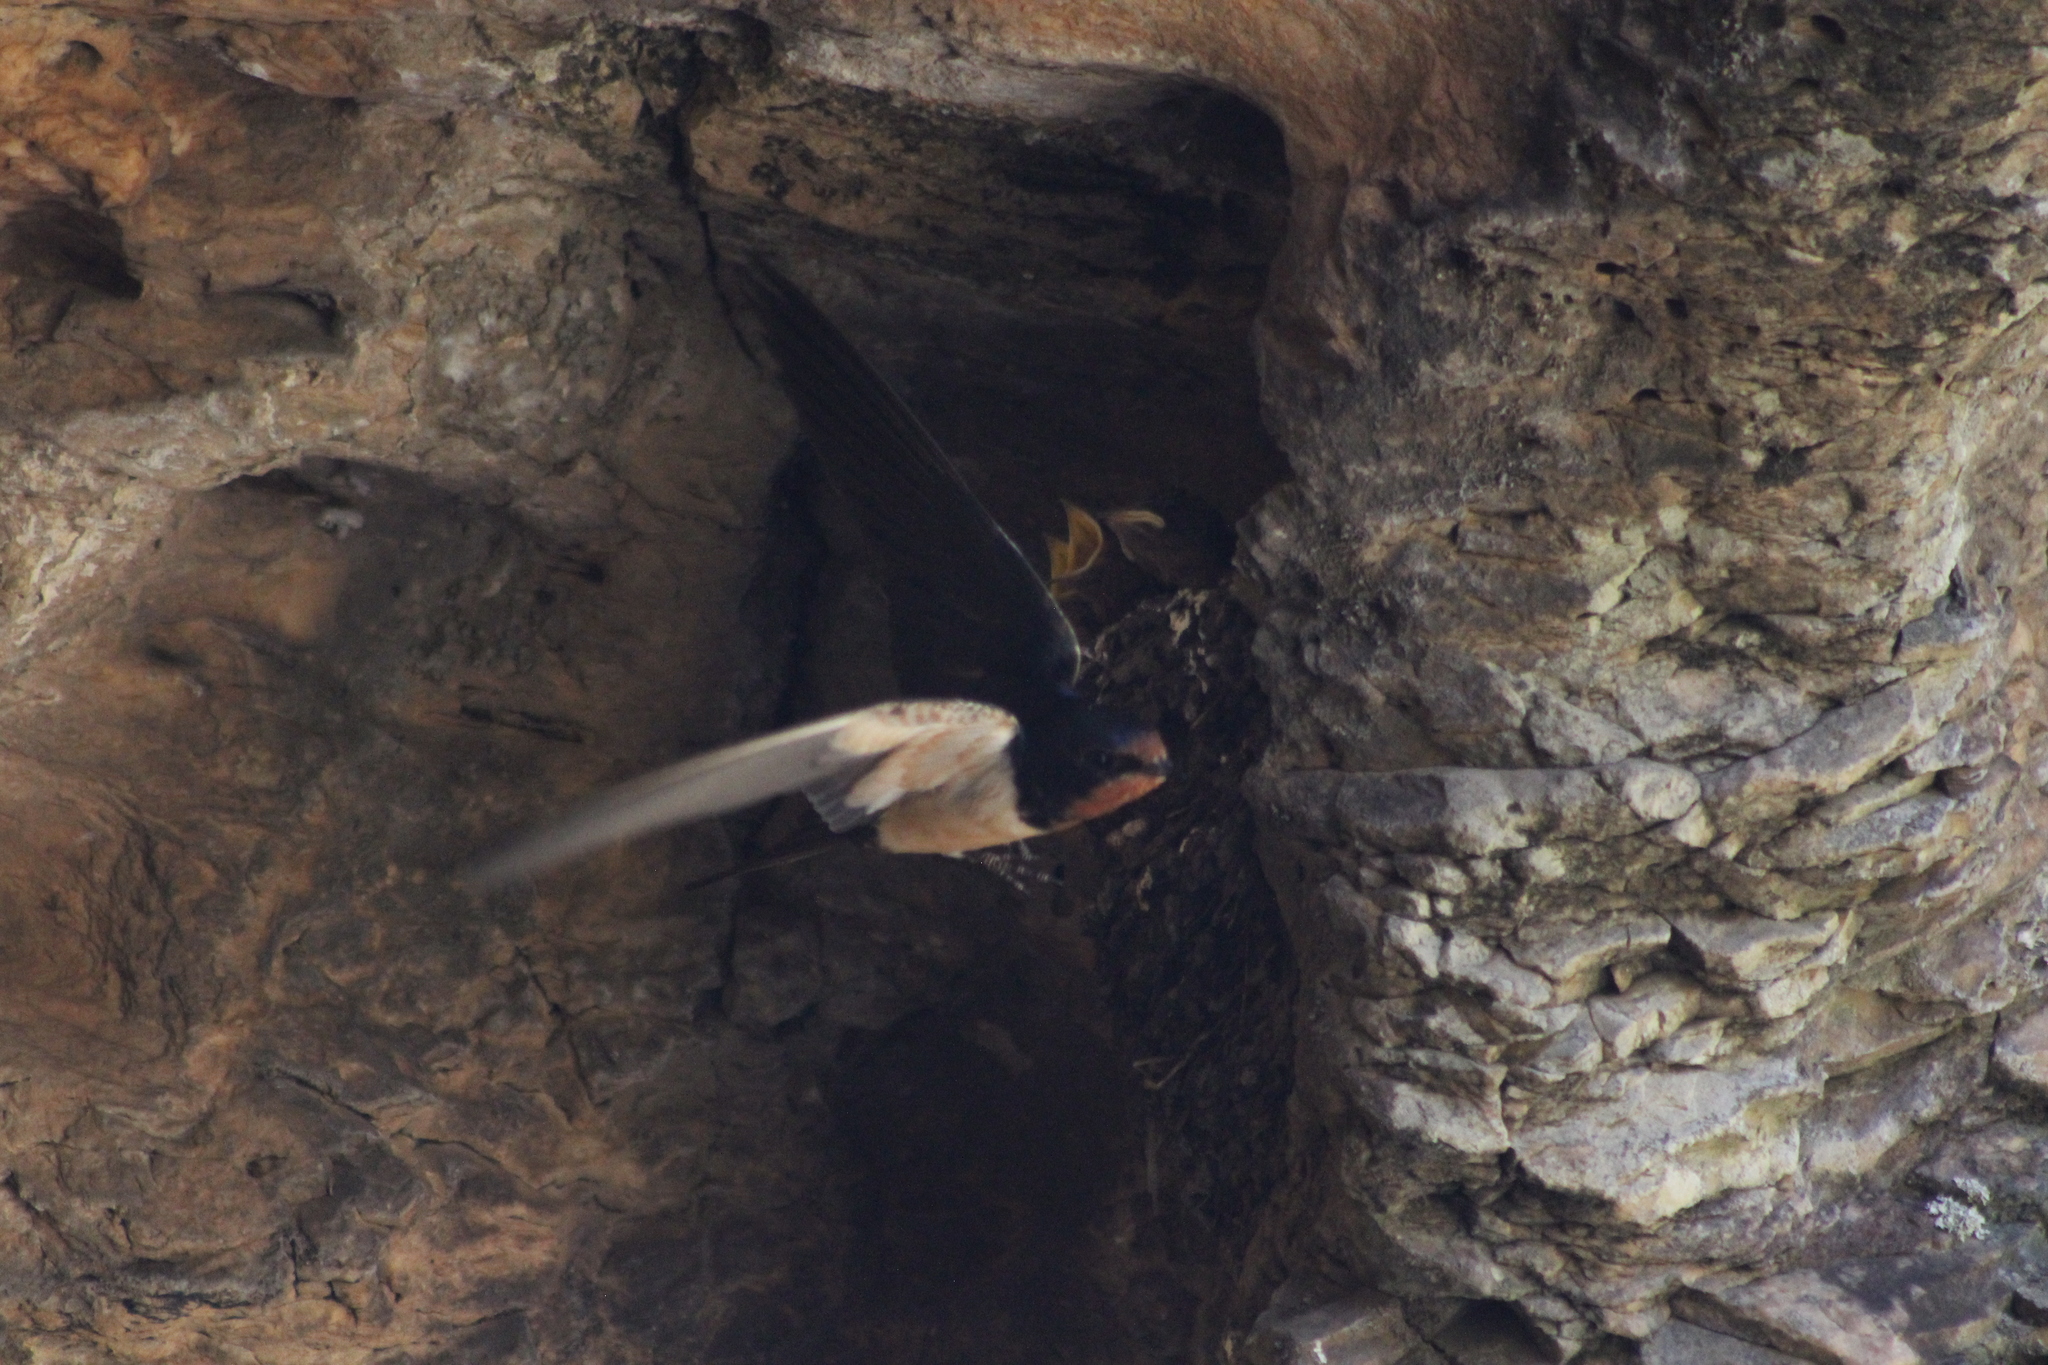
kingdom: Animalia
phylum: Chordata
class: Aves
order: Passeriformes
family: Hirundinidae
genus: Hirundo
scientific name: Hirundo rustica
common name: Barn swallow
